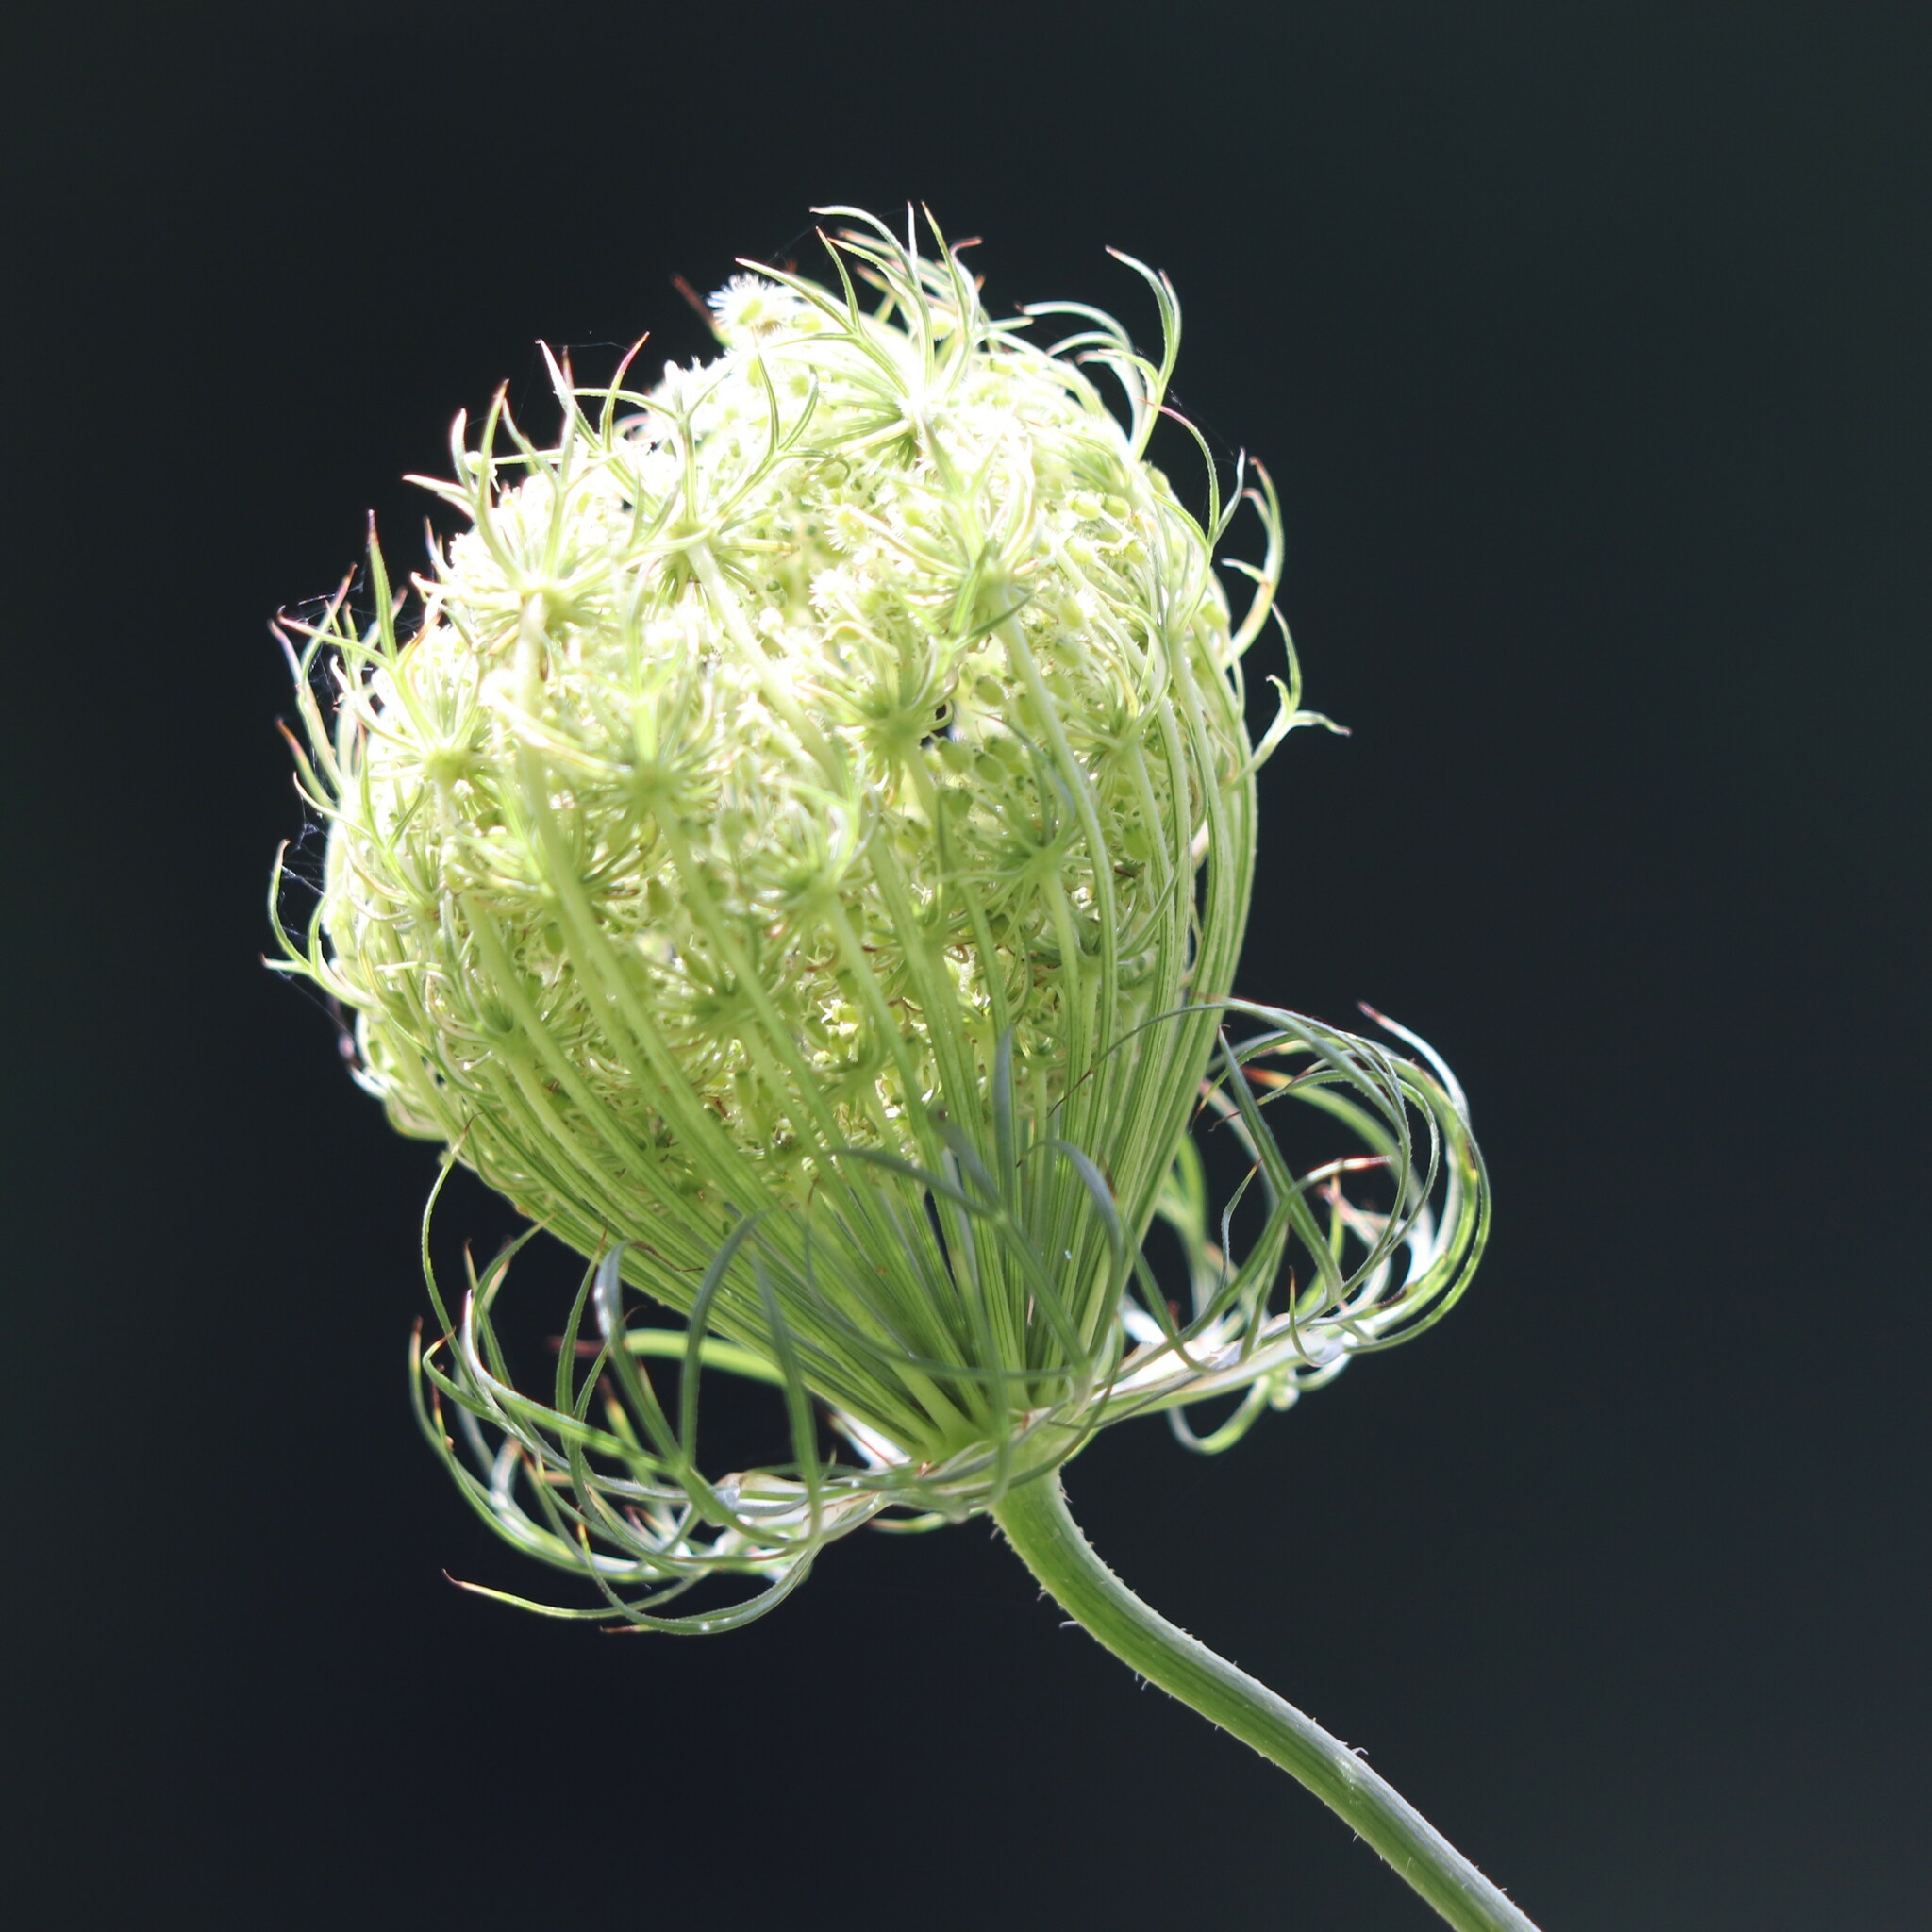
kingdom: Plantae
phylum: Tracheophyta
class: Magnoliopsida
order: Apiales
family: Apiaceae
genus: Daucus
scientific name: Daucus carota
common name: Wild carrot
